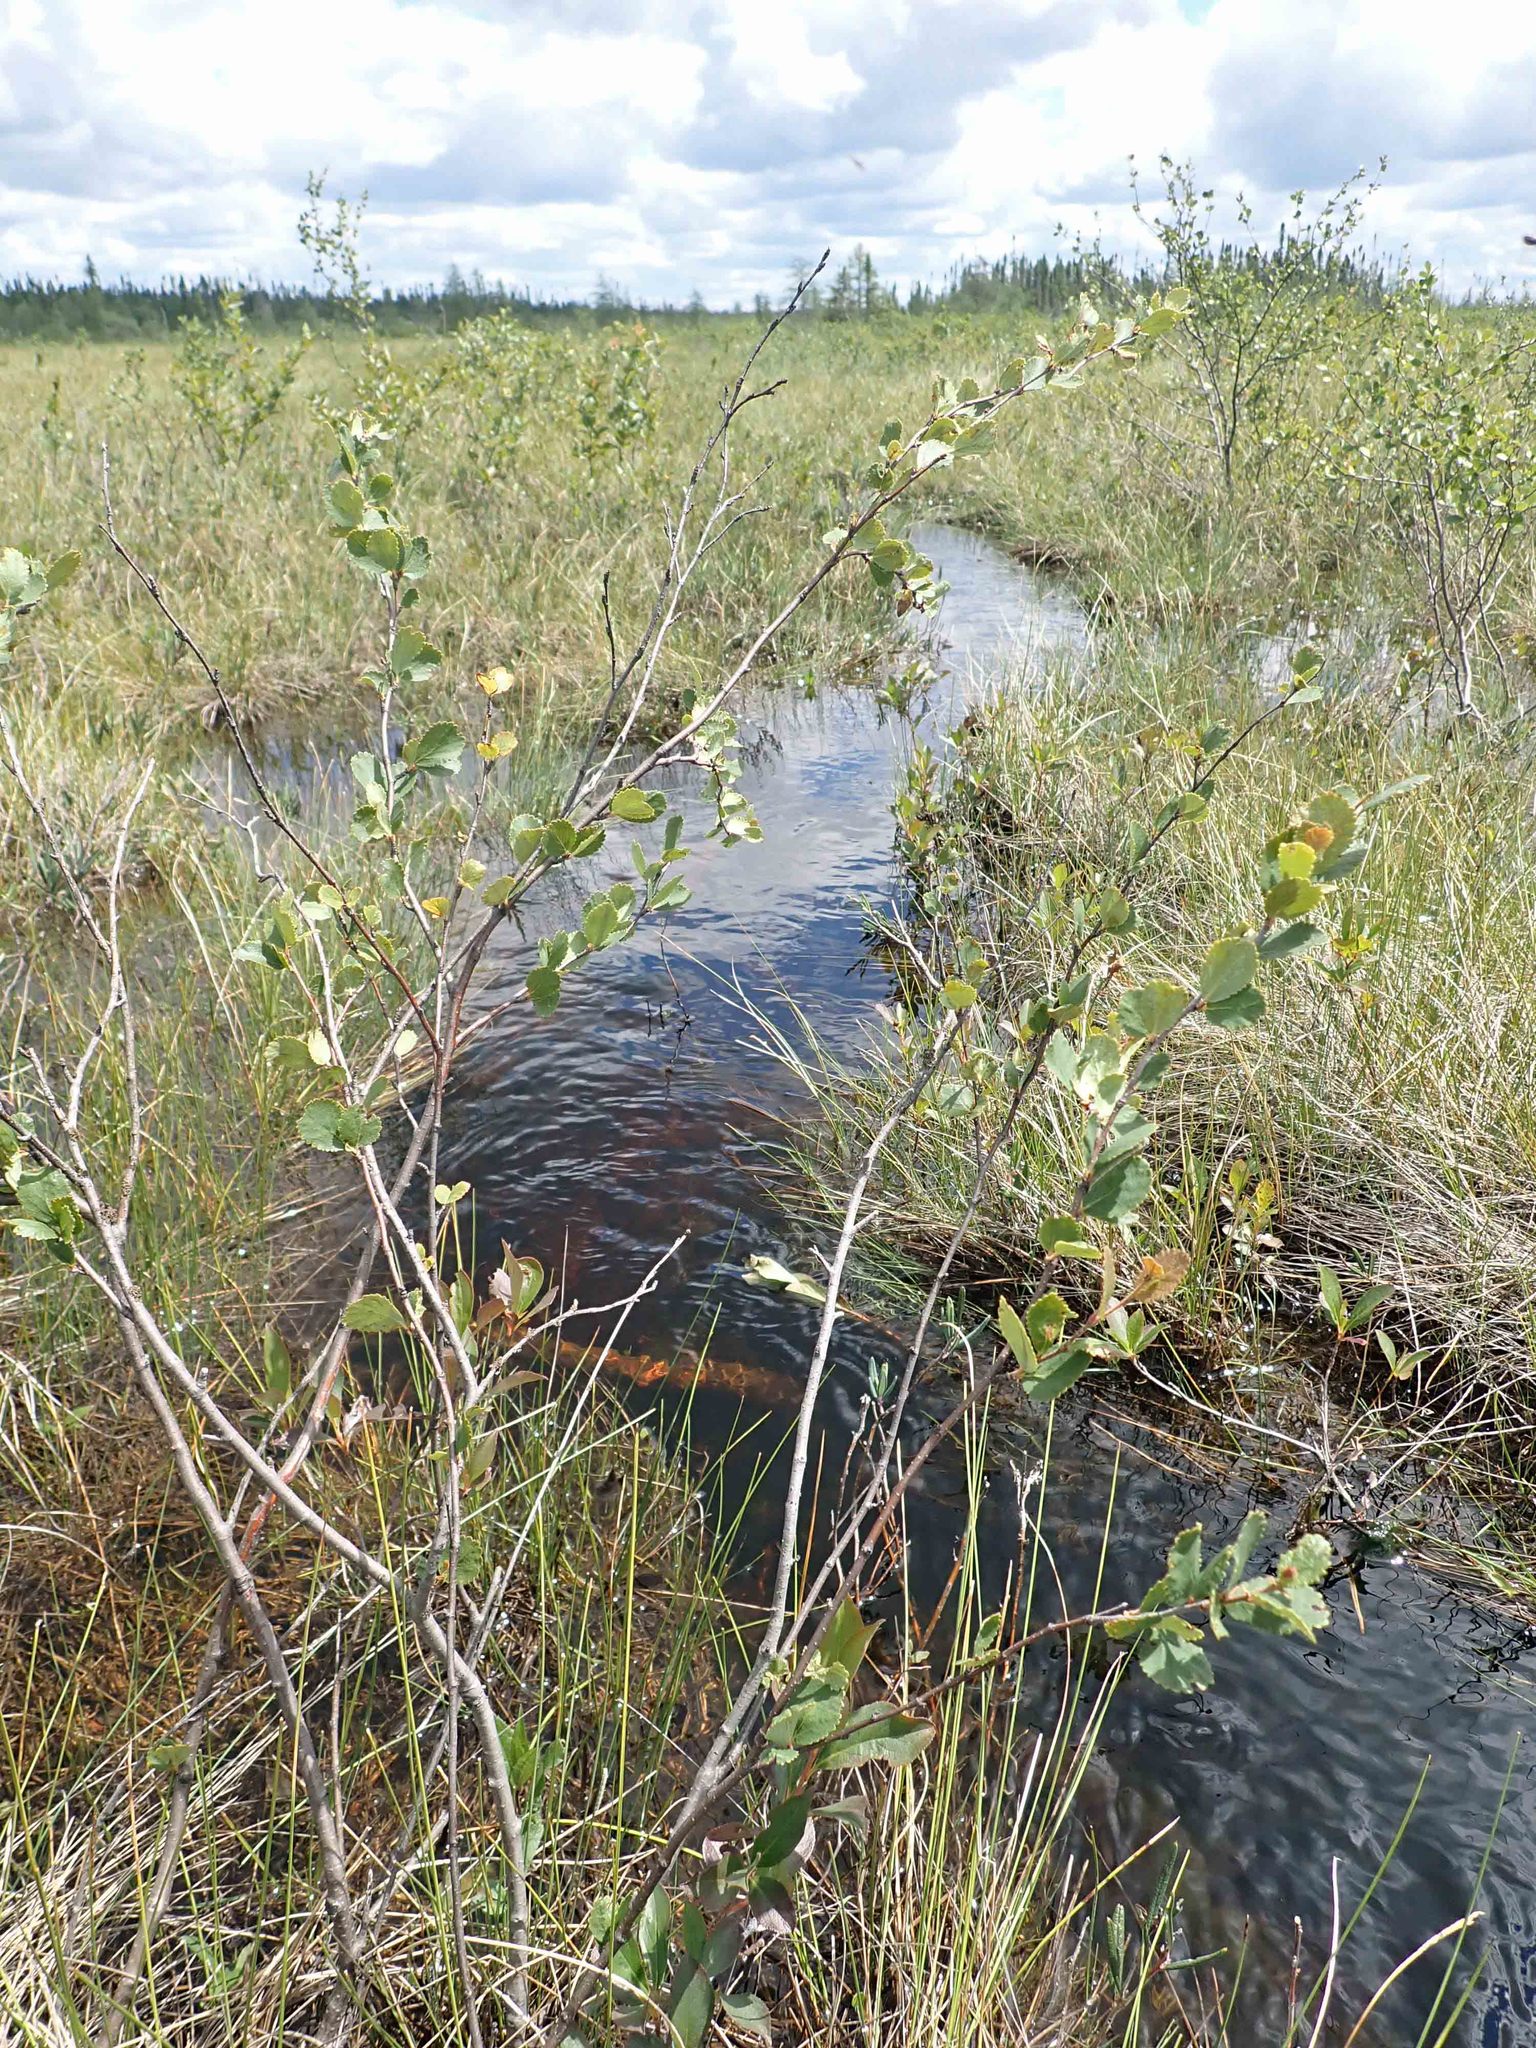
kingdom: Plantae
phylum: Tracheophyta
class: Magnoliopsida
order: Fagales
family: Betulaceae
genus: Betula
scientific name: Betula pumila
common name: Bog birch
